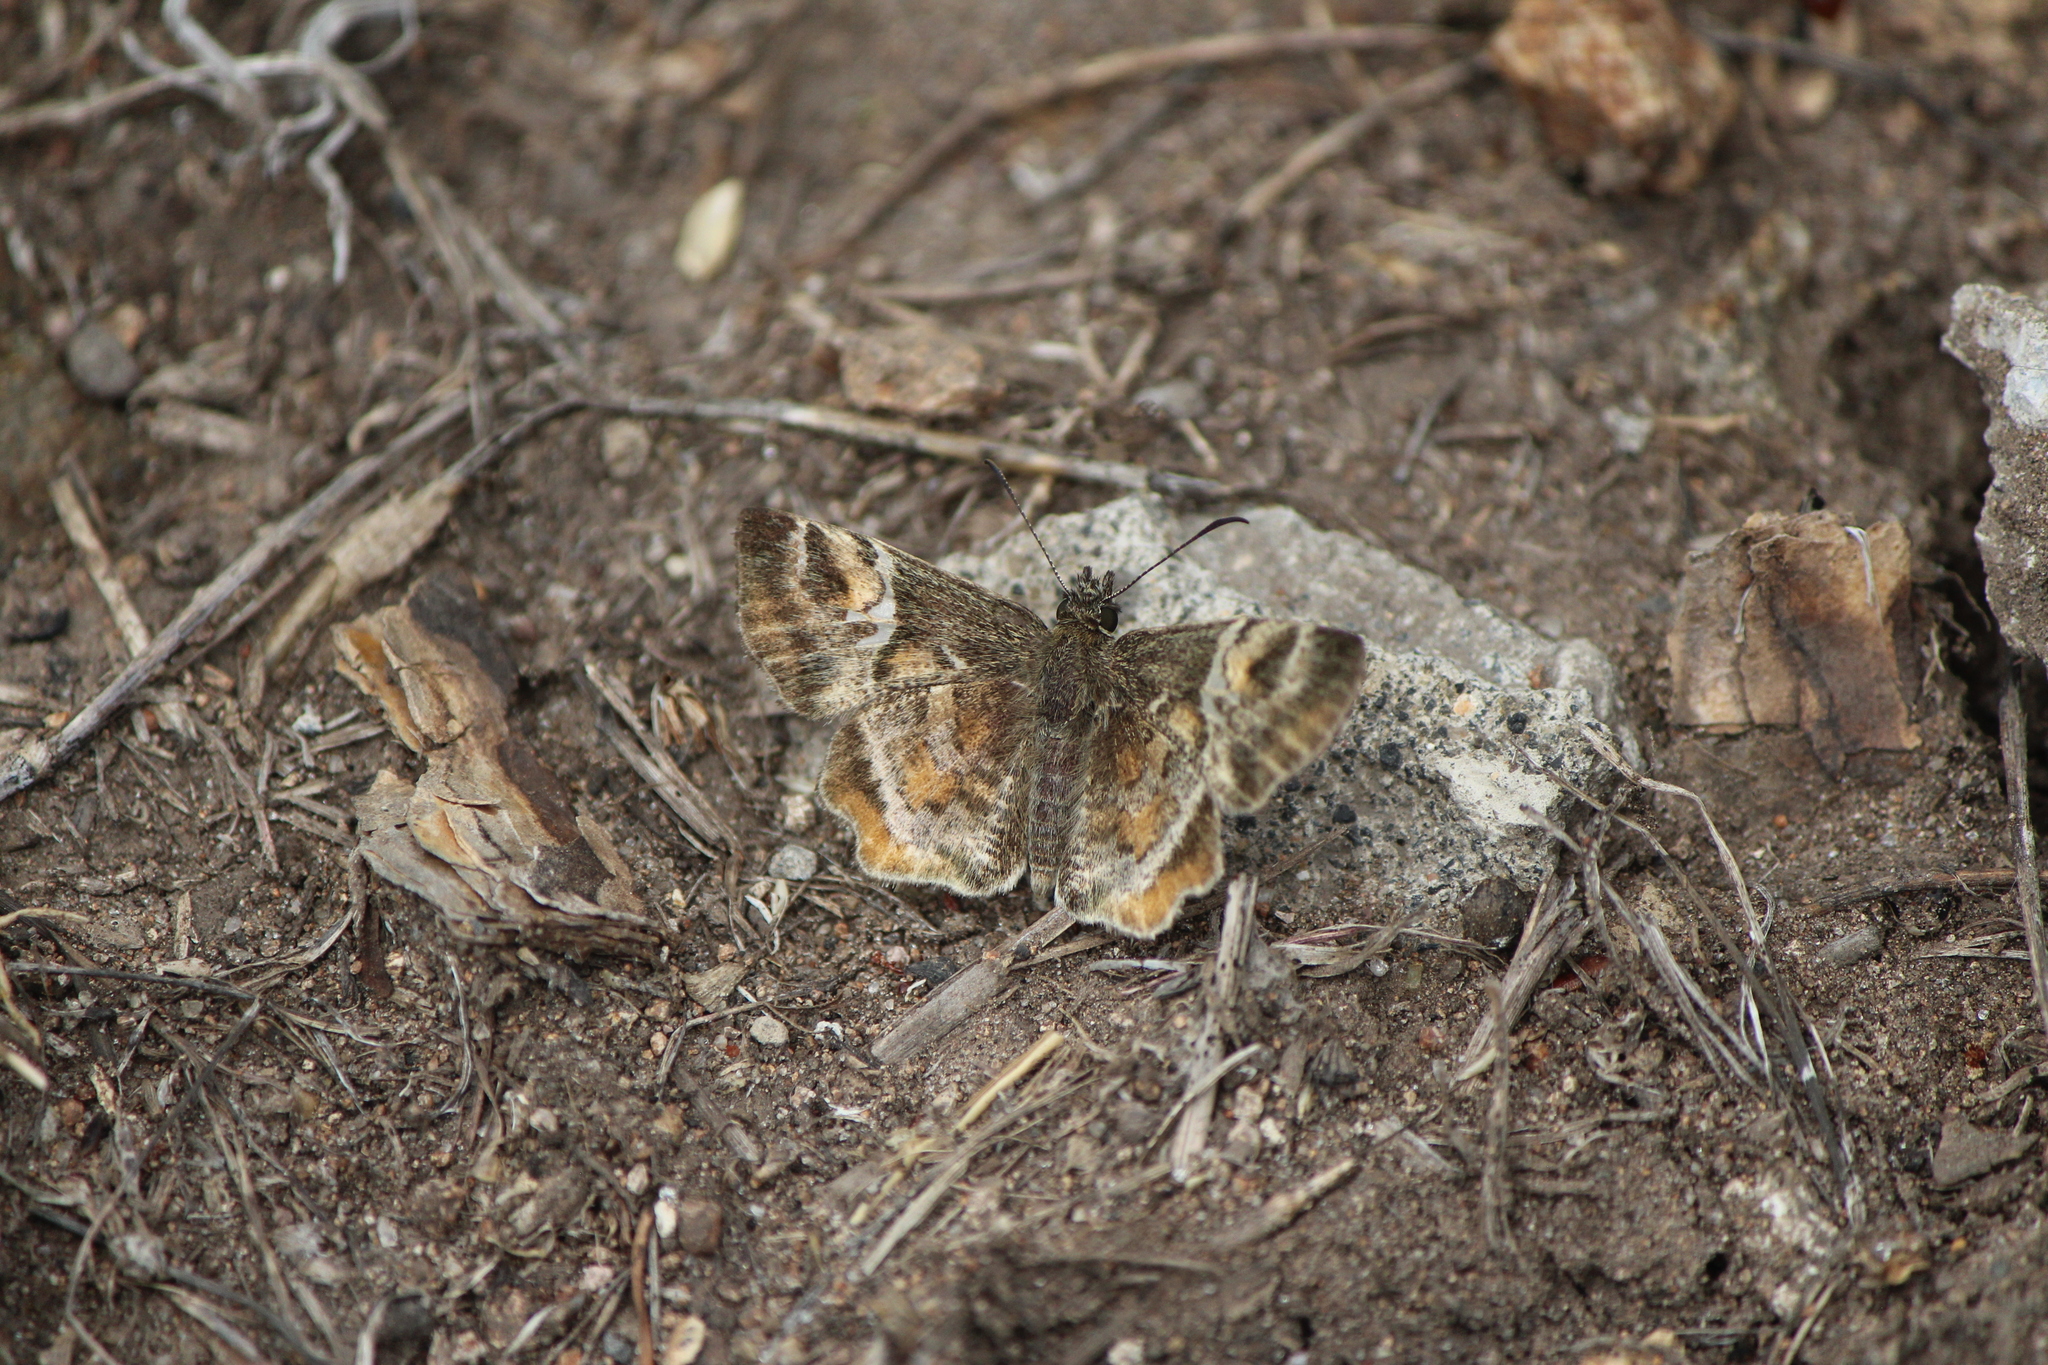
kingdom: Animalia
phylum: Arthropoda
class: Insecta
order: Lepidoptera
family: Hesperiidae
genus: Systasea
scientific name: Systasea pulverulenta
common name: Texas powdered skipper
